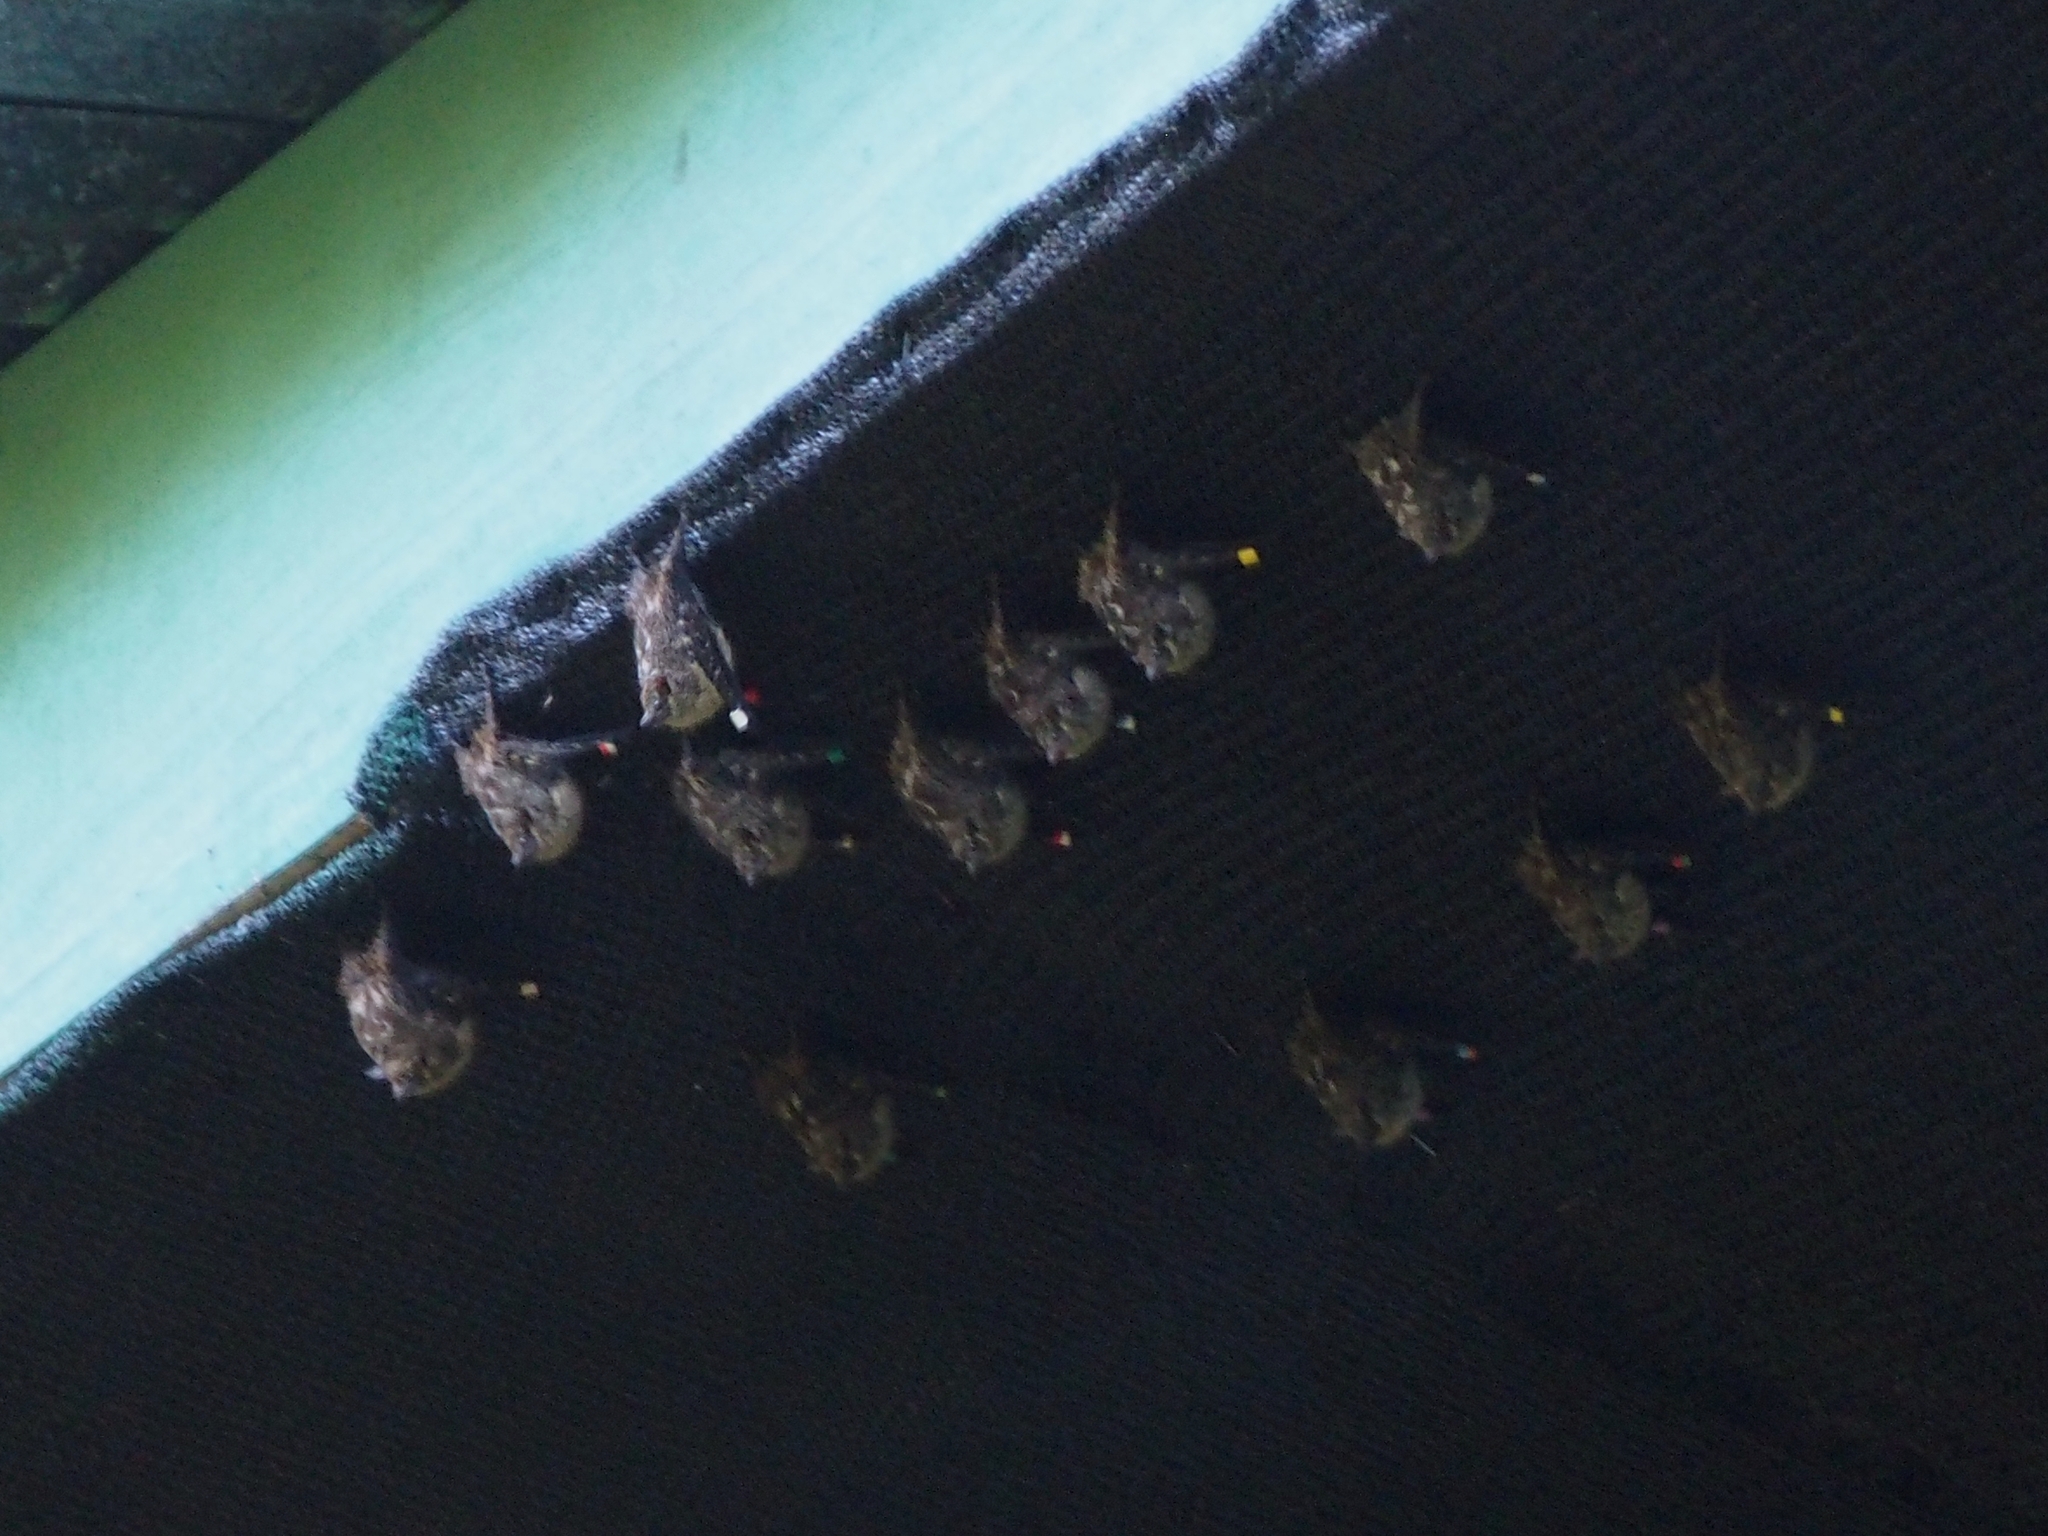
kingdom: Animalia
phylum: Chordata
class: Mammalia
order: Chiroptera
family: Emballonuridae
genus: Rhynchonycteris
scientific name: Rhynchonycteris naso
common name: Proboscis bat
